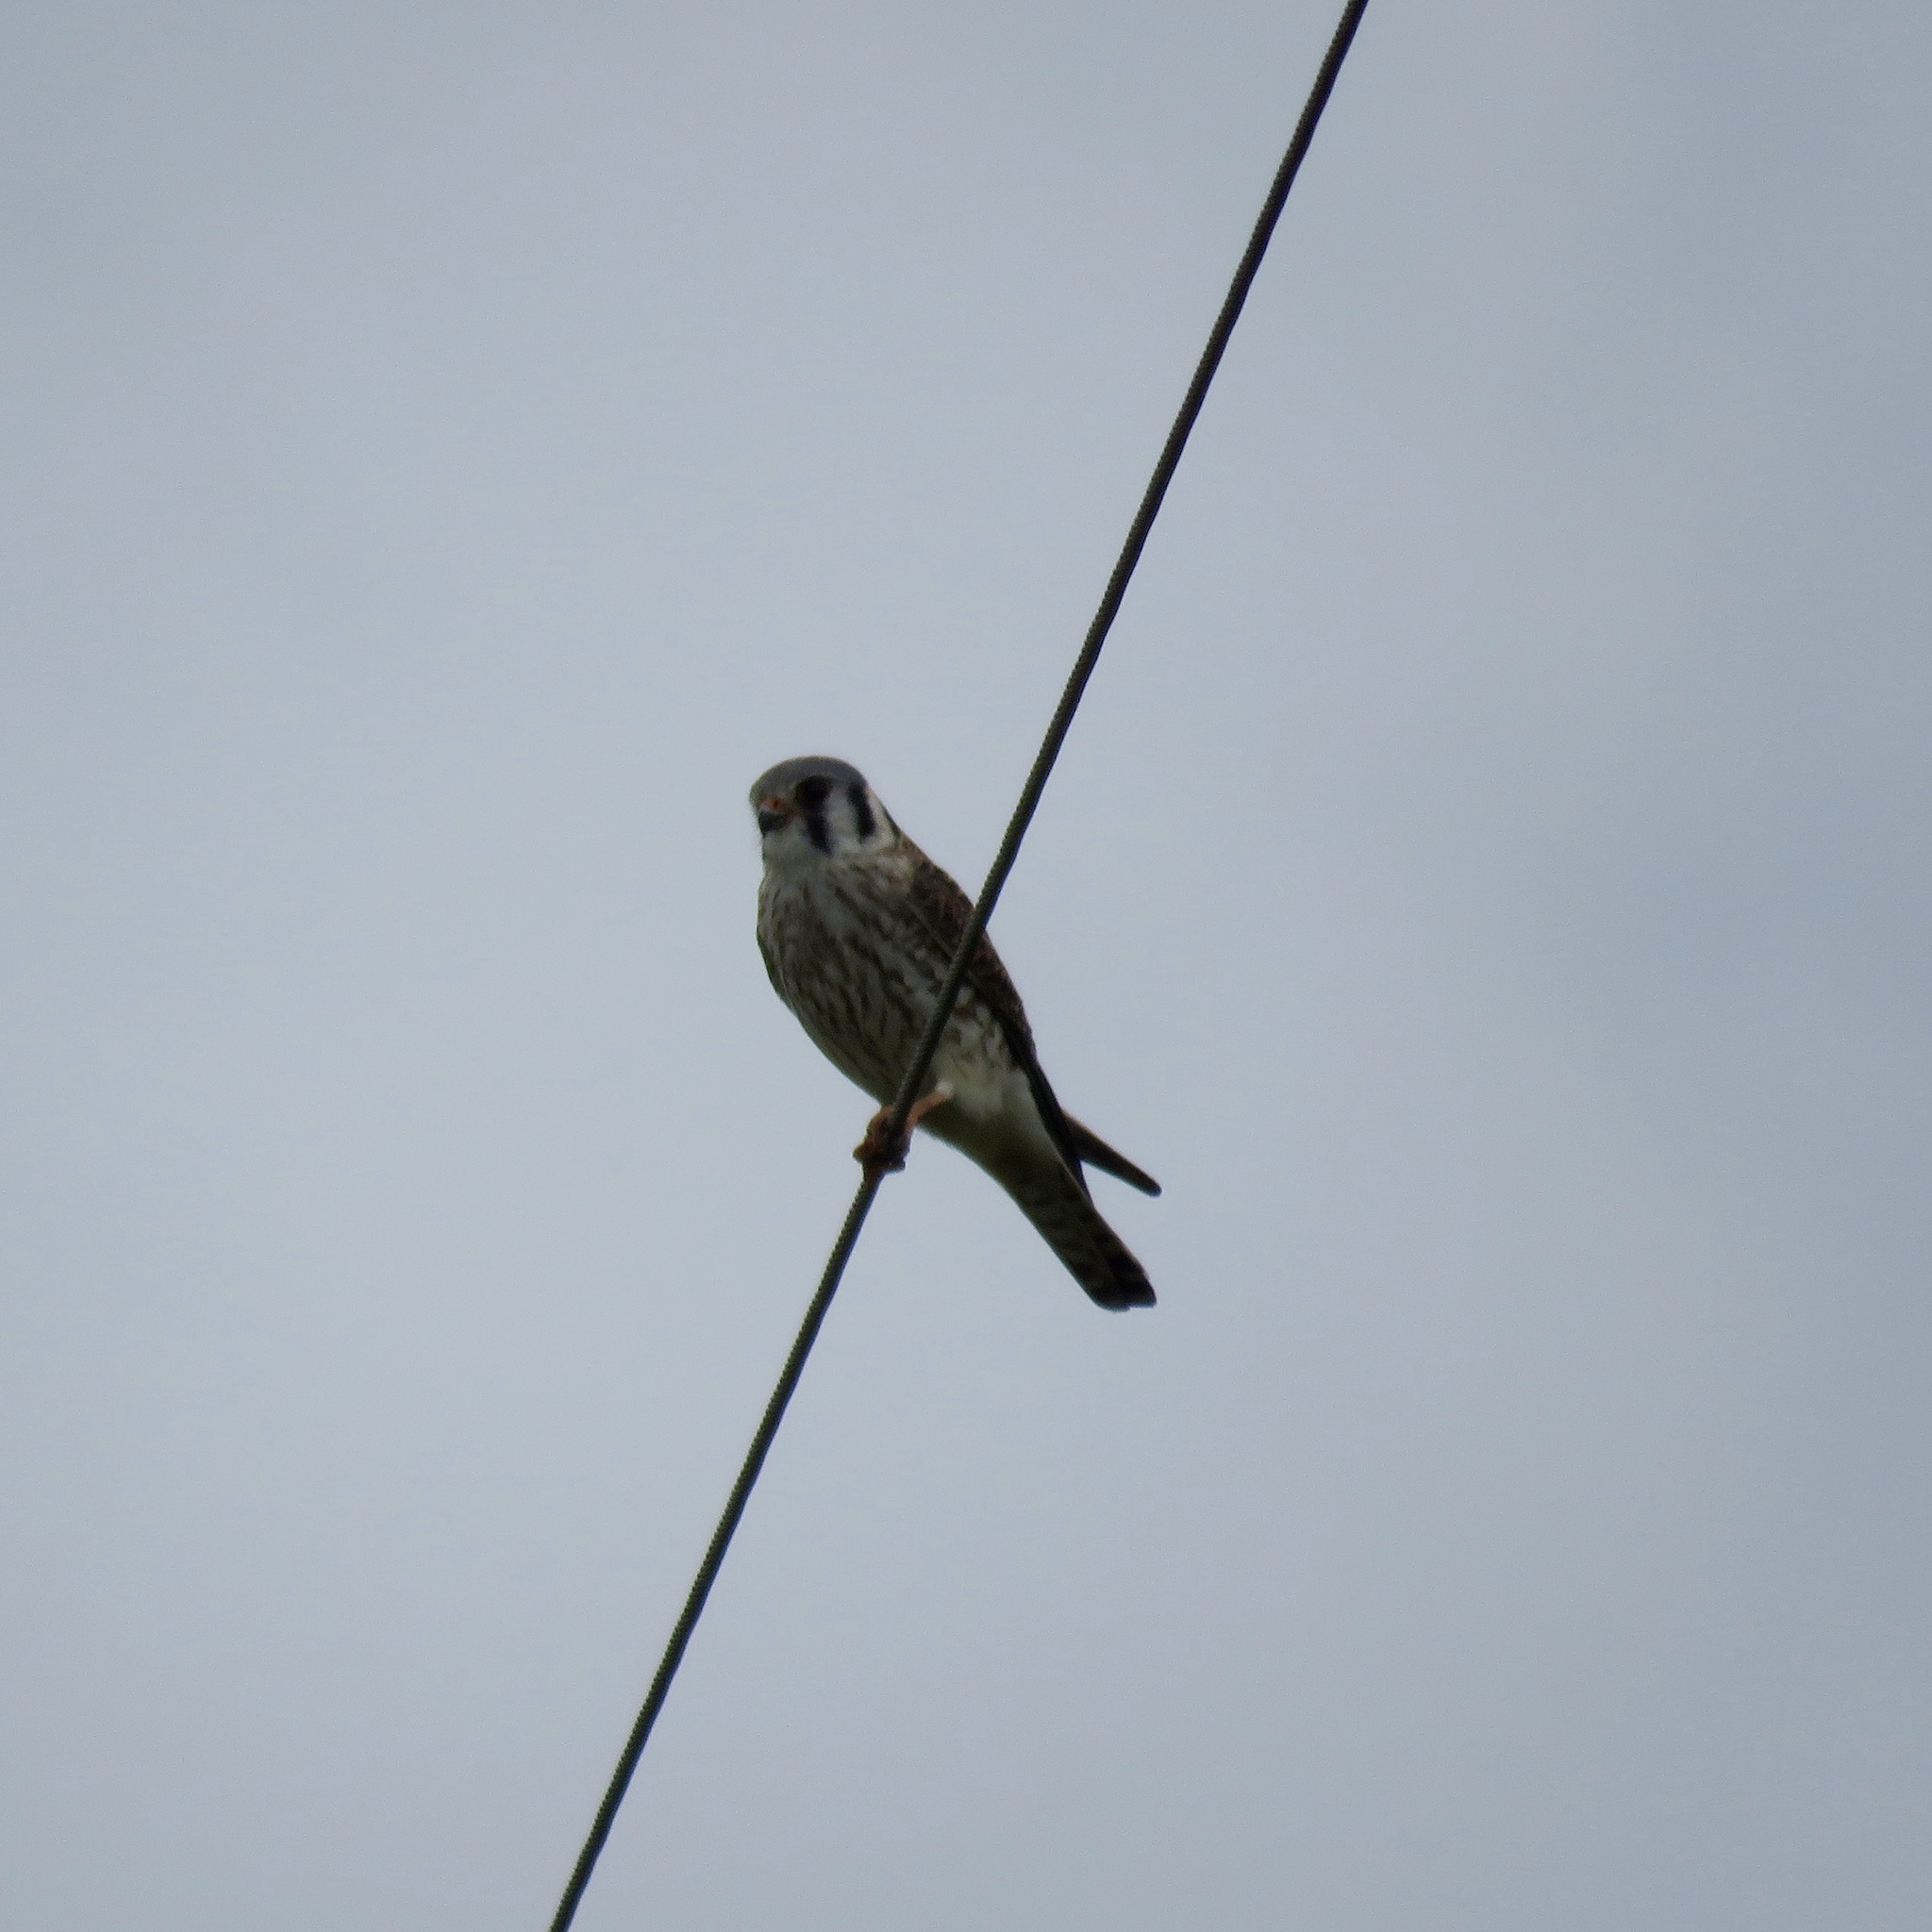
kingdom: Animalia
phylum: Chordata
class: Aves
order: Falconiformes
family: Falconidae
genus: Falco
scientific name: Falco sparverius
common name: American kestrel
